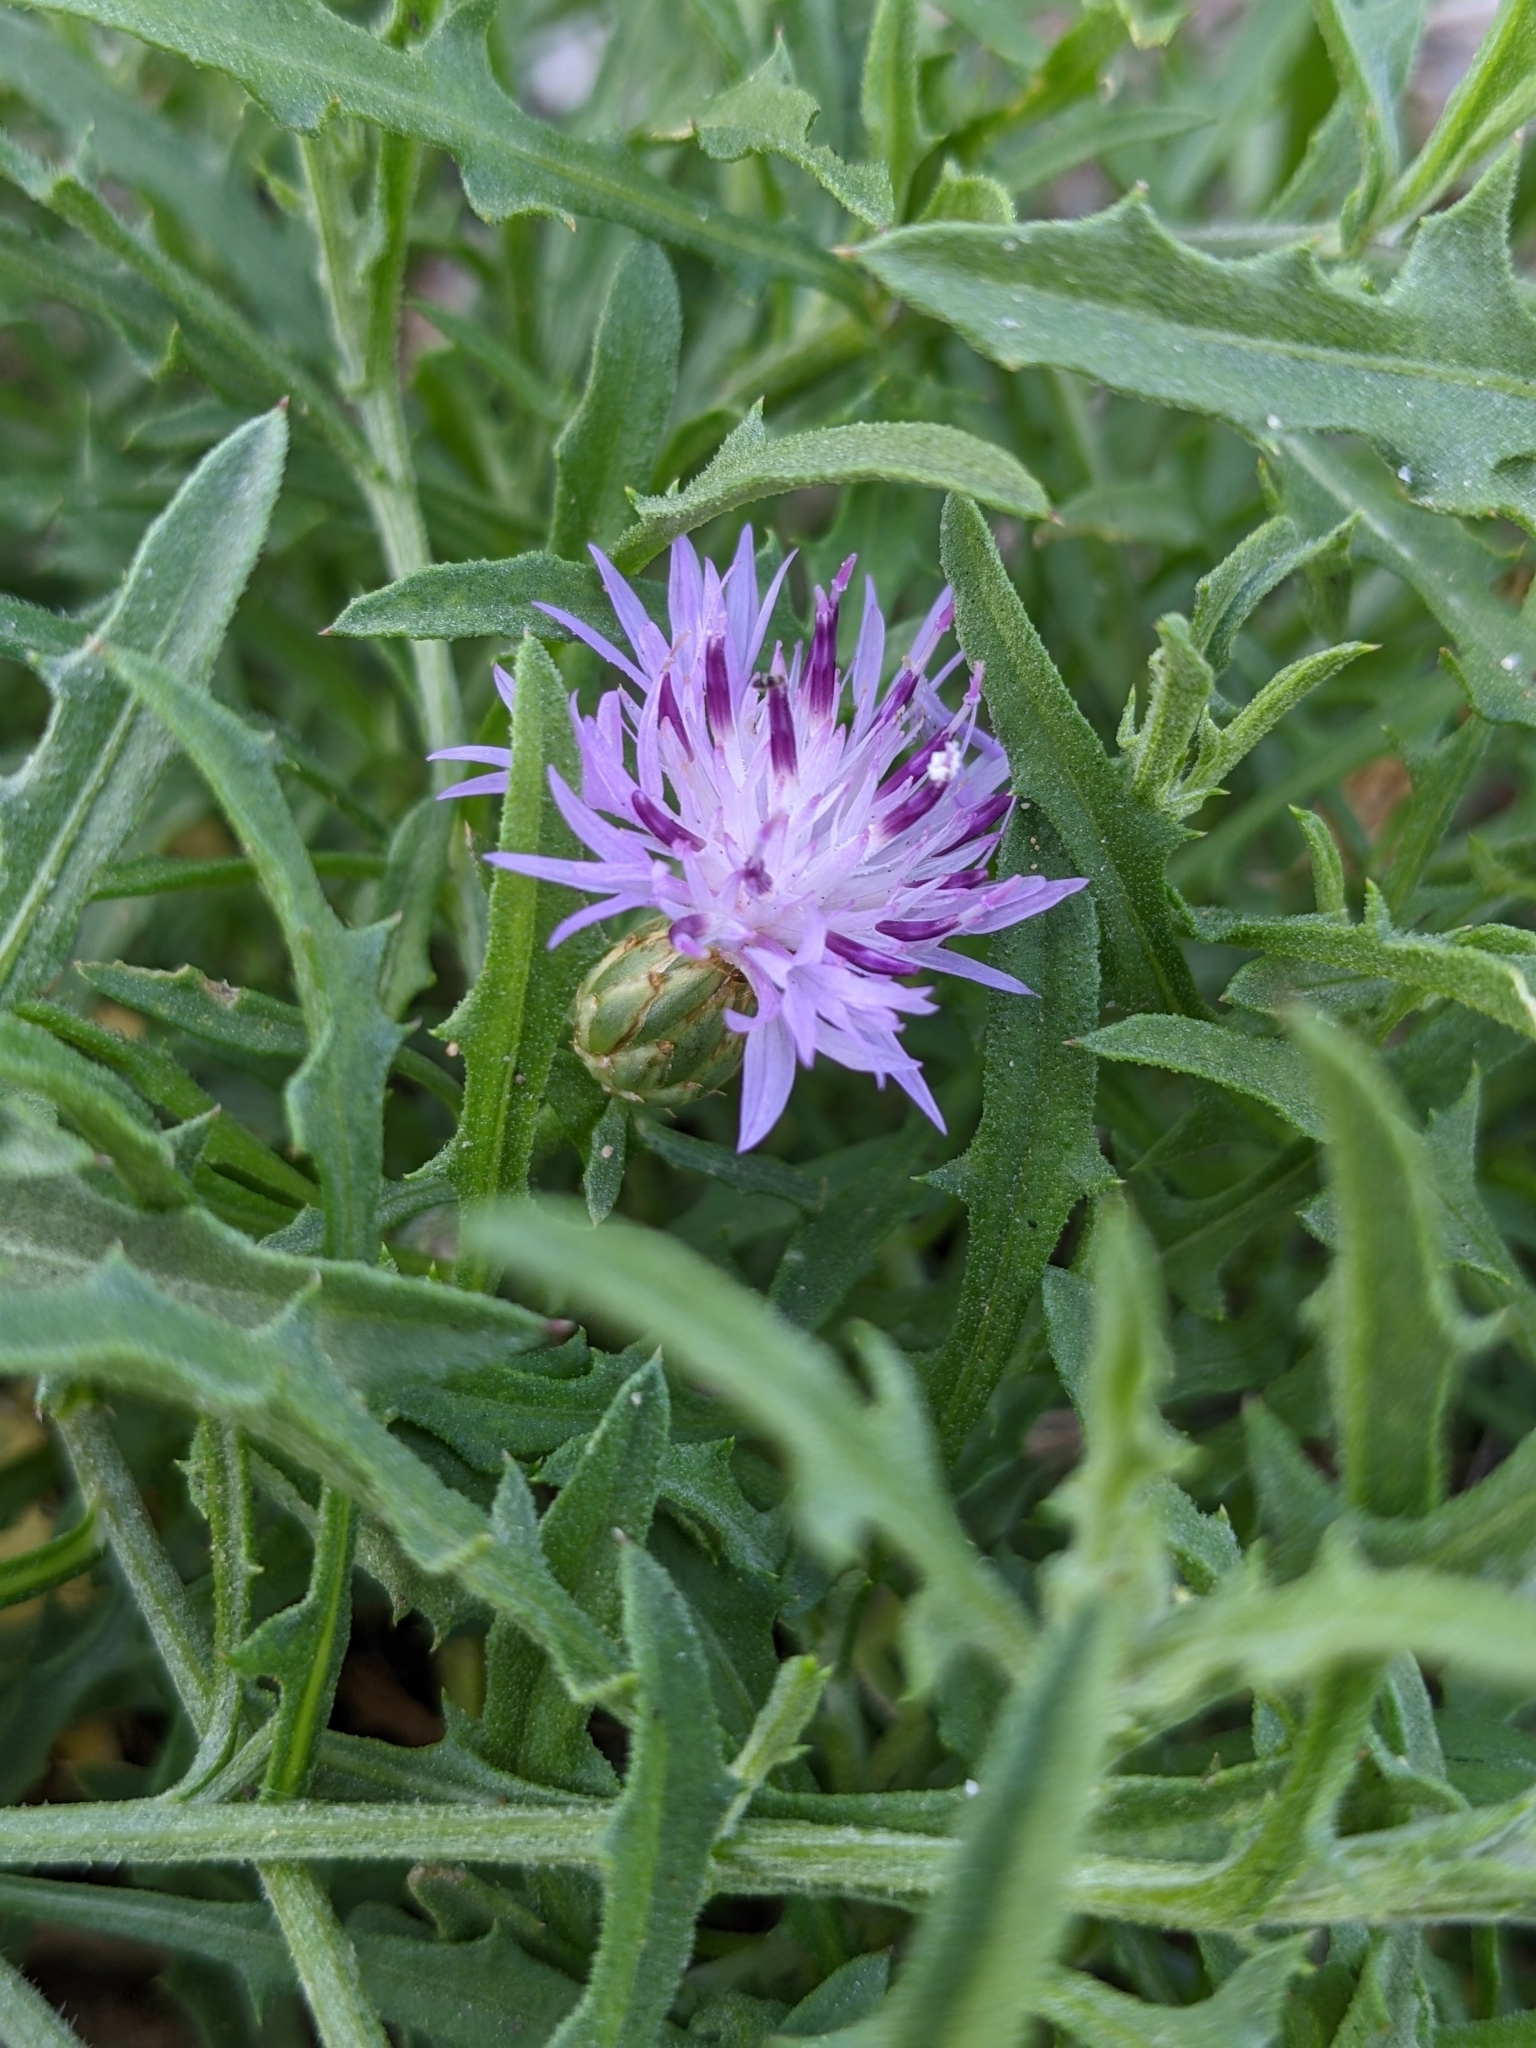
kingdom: Plantae
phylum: Tracheophyta
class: Magnoliopsida
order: Asterales
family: Asteraceae
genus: Centaurea
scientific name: Centaurea aspera
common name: Rough star-thistle
